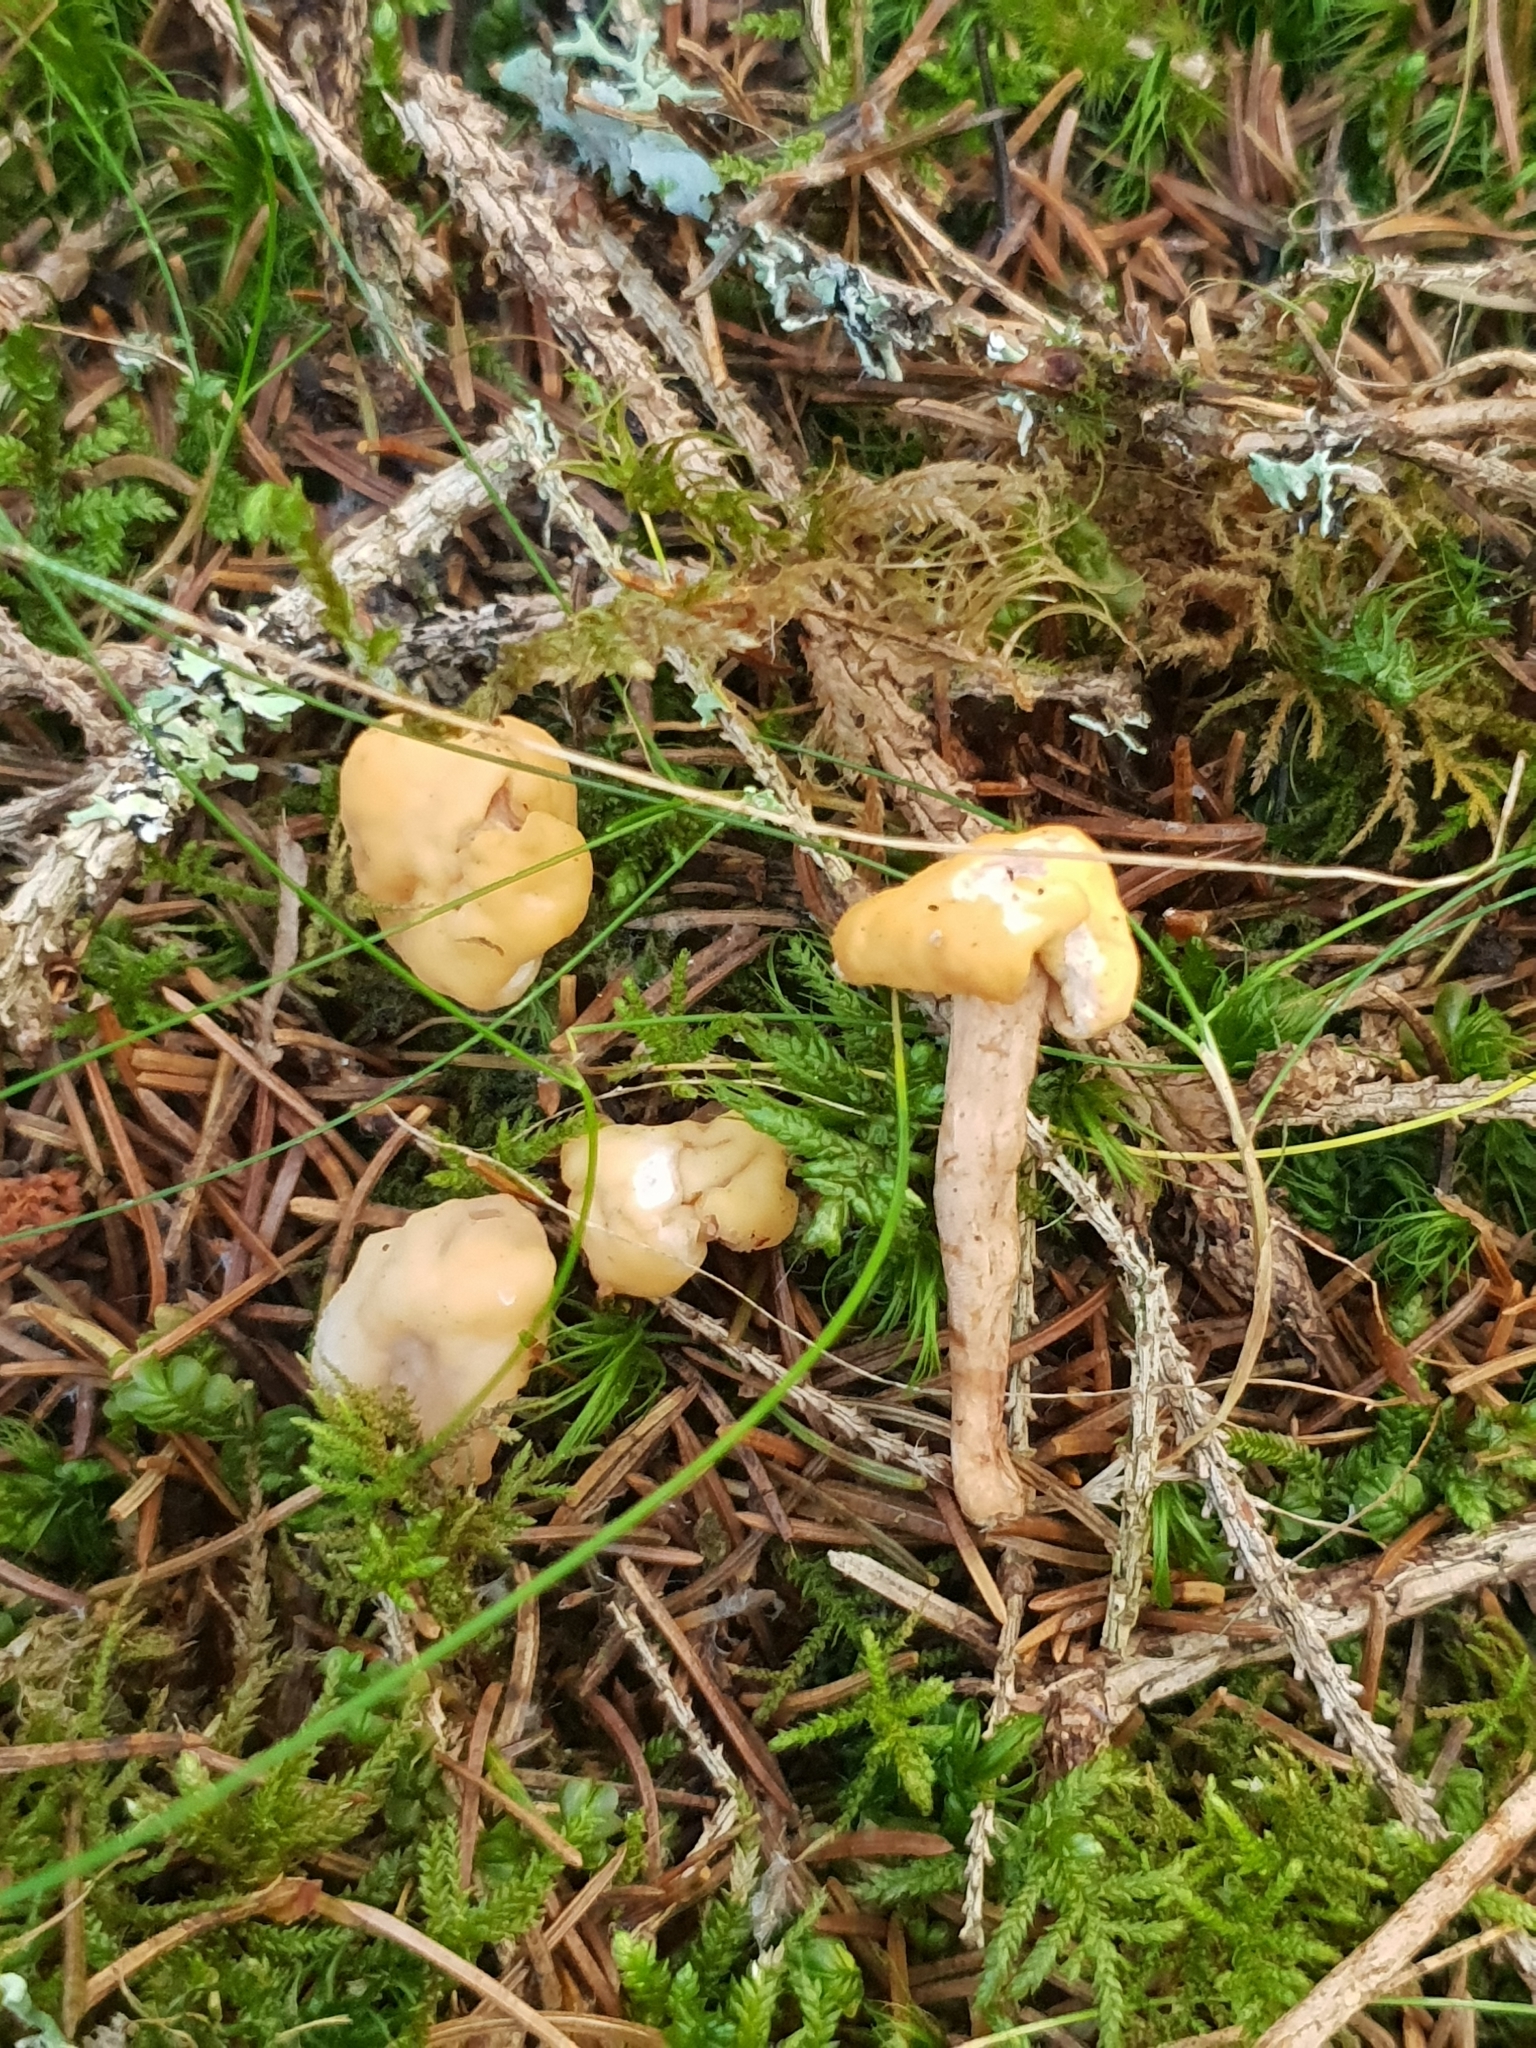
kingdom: Fungi
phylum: Ascomycota
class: Leotiomycetes
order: Leotiales
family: Leotiaceae
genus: Leotia
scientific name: Leotia lubrica
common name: Jellybaby
